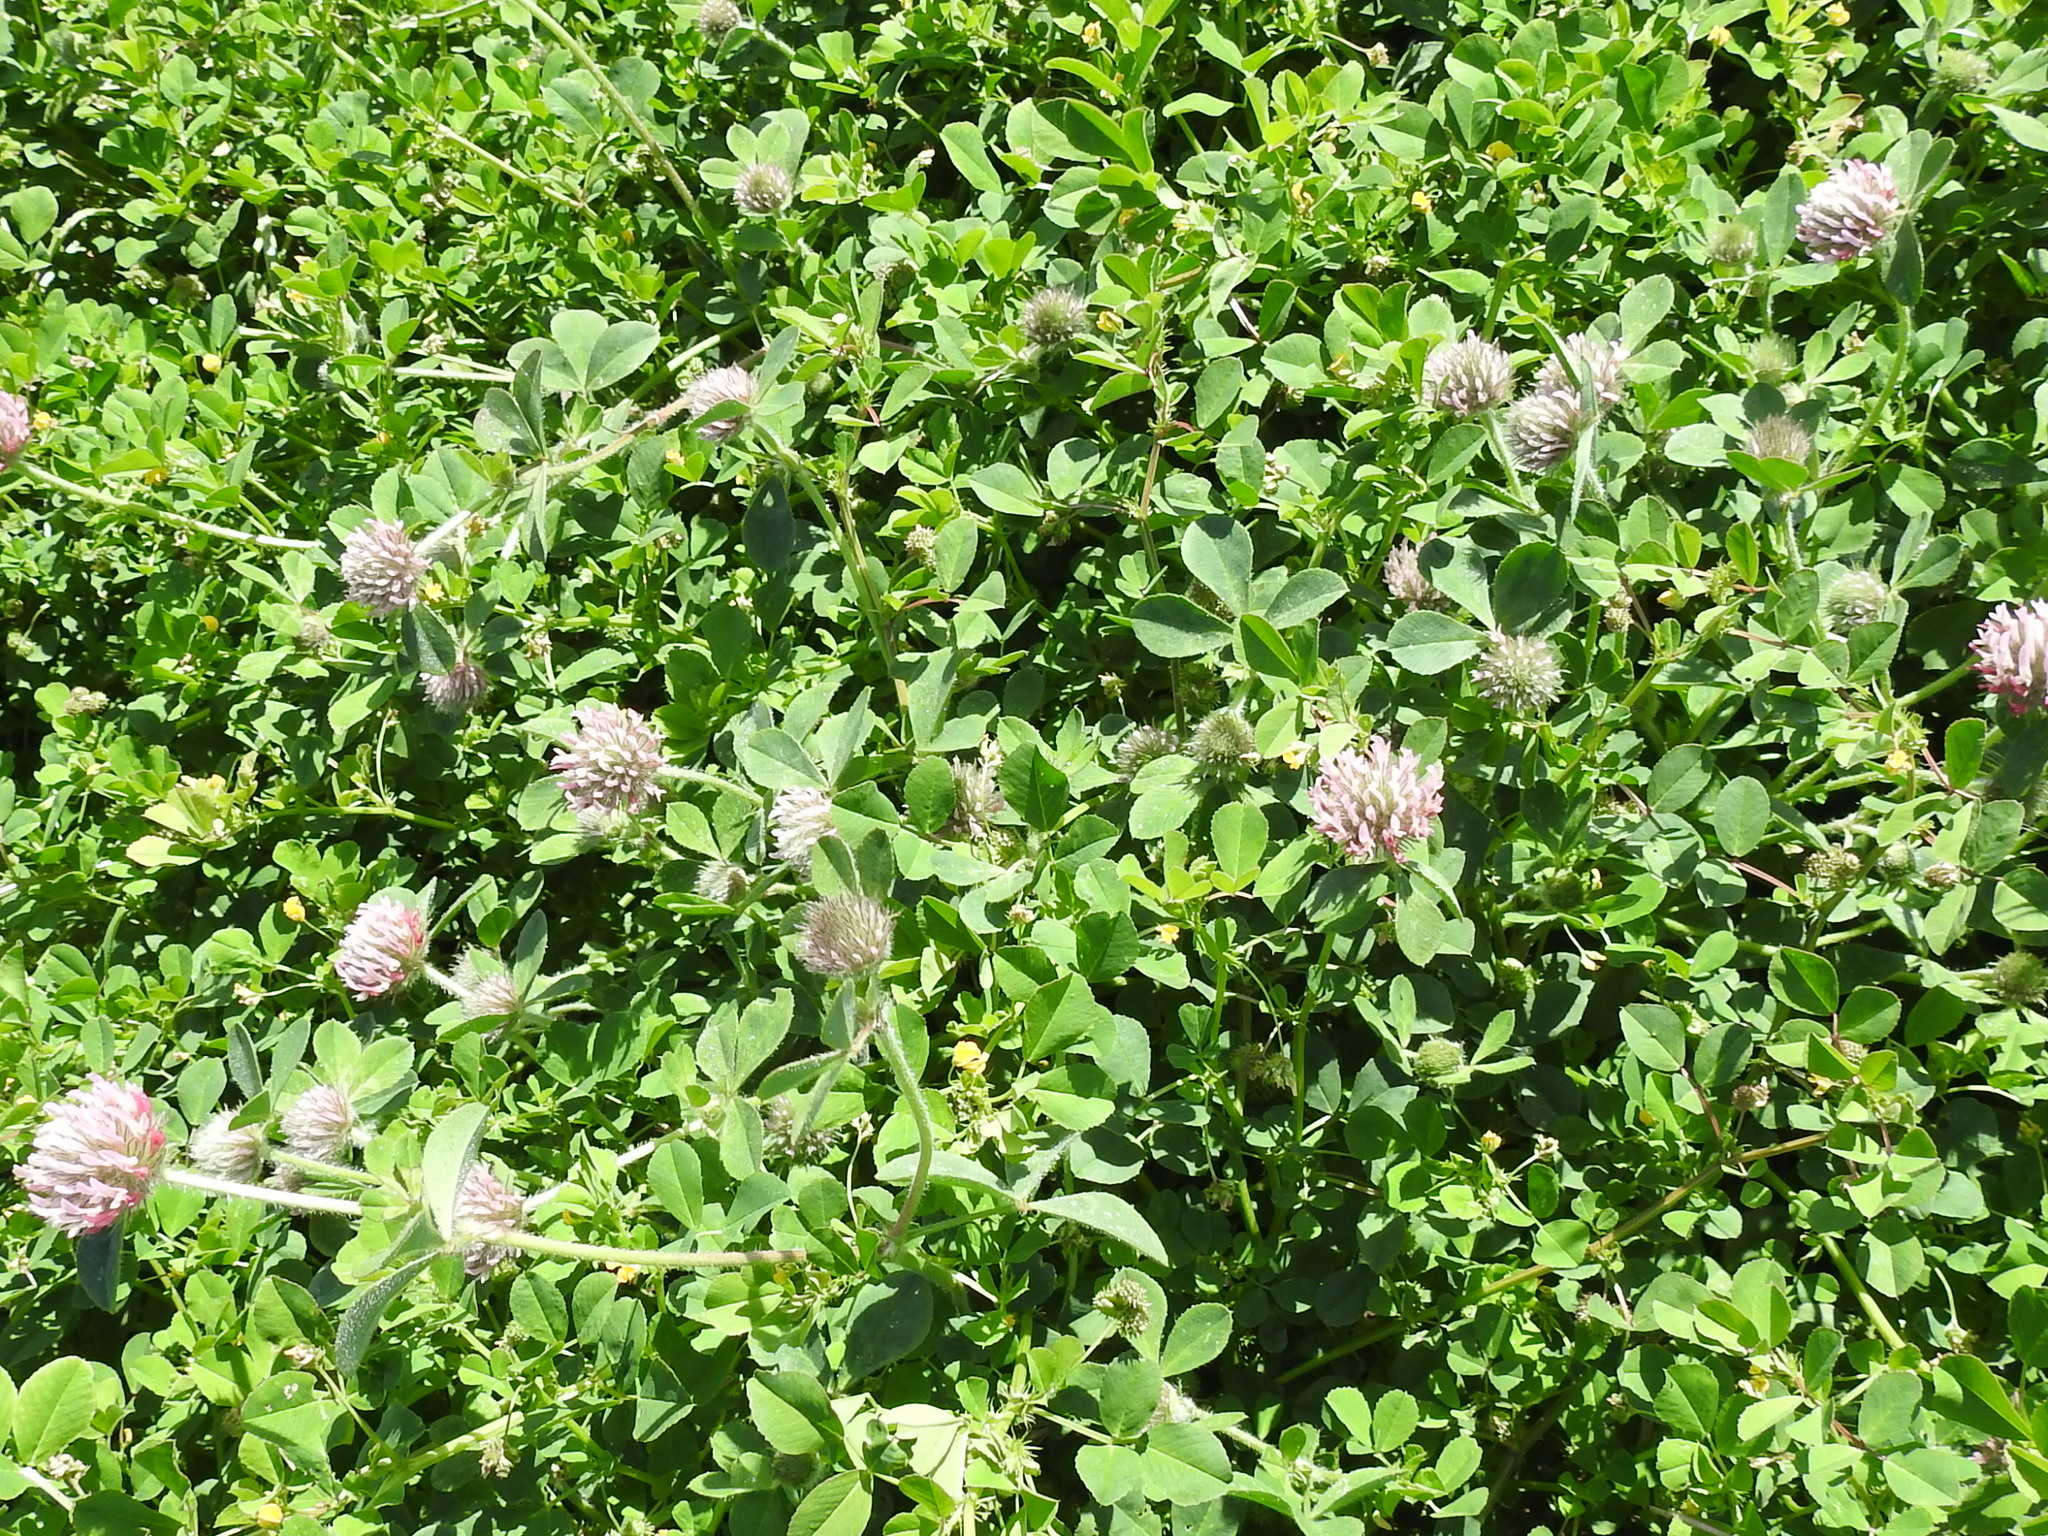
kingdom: Plantae
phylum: Tracheophyta
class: Magnoliopsida
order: Fabales
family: Fabaceae
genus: Trifolium
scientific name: Trifolium hirtum
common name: Rose clover
